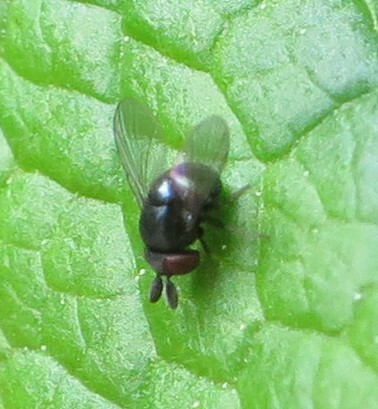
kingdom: Animalia
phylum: Arthropoda
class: Insecta
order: Diptera
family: Cryptochetidae
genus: Cryptochetum
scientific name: Cryptochetum iceryae
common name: Cottony cushion scale fly
